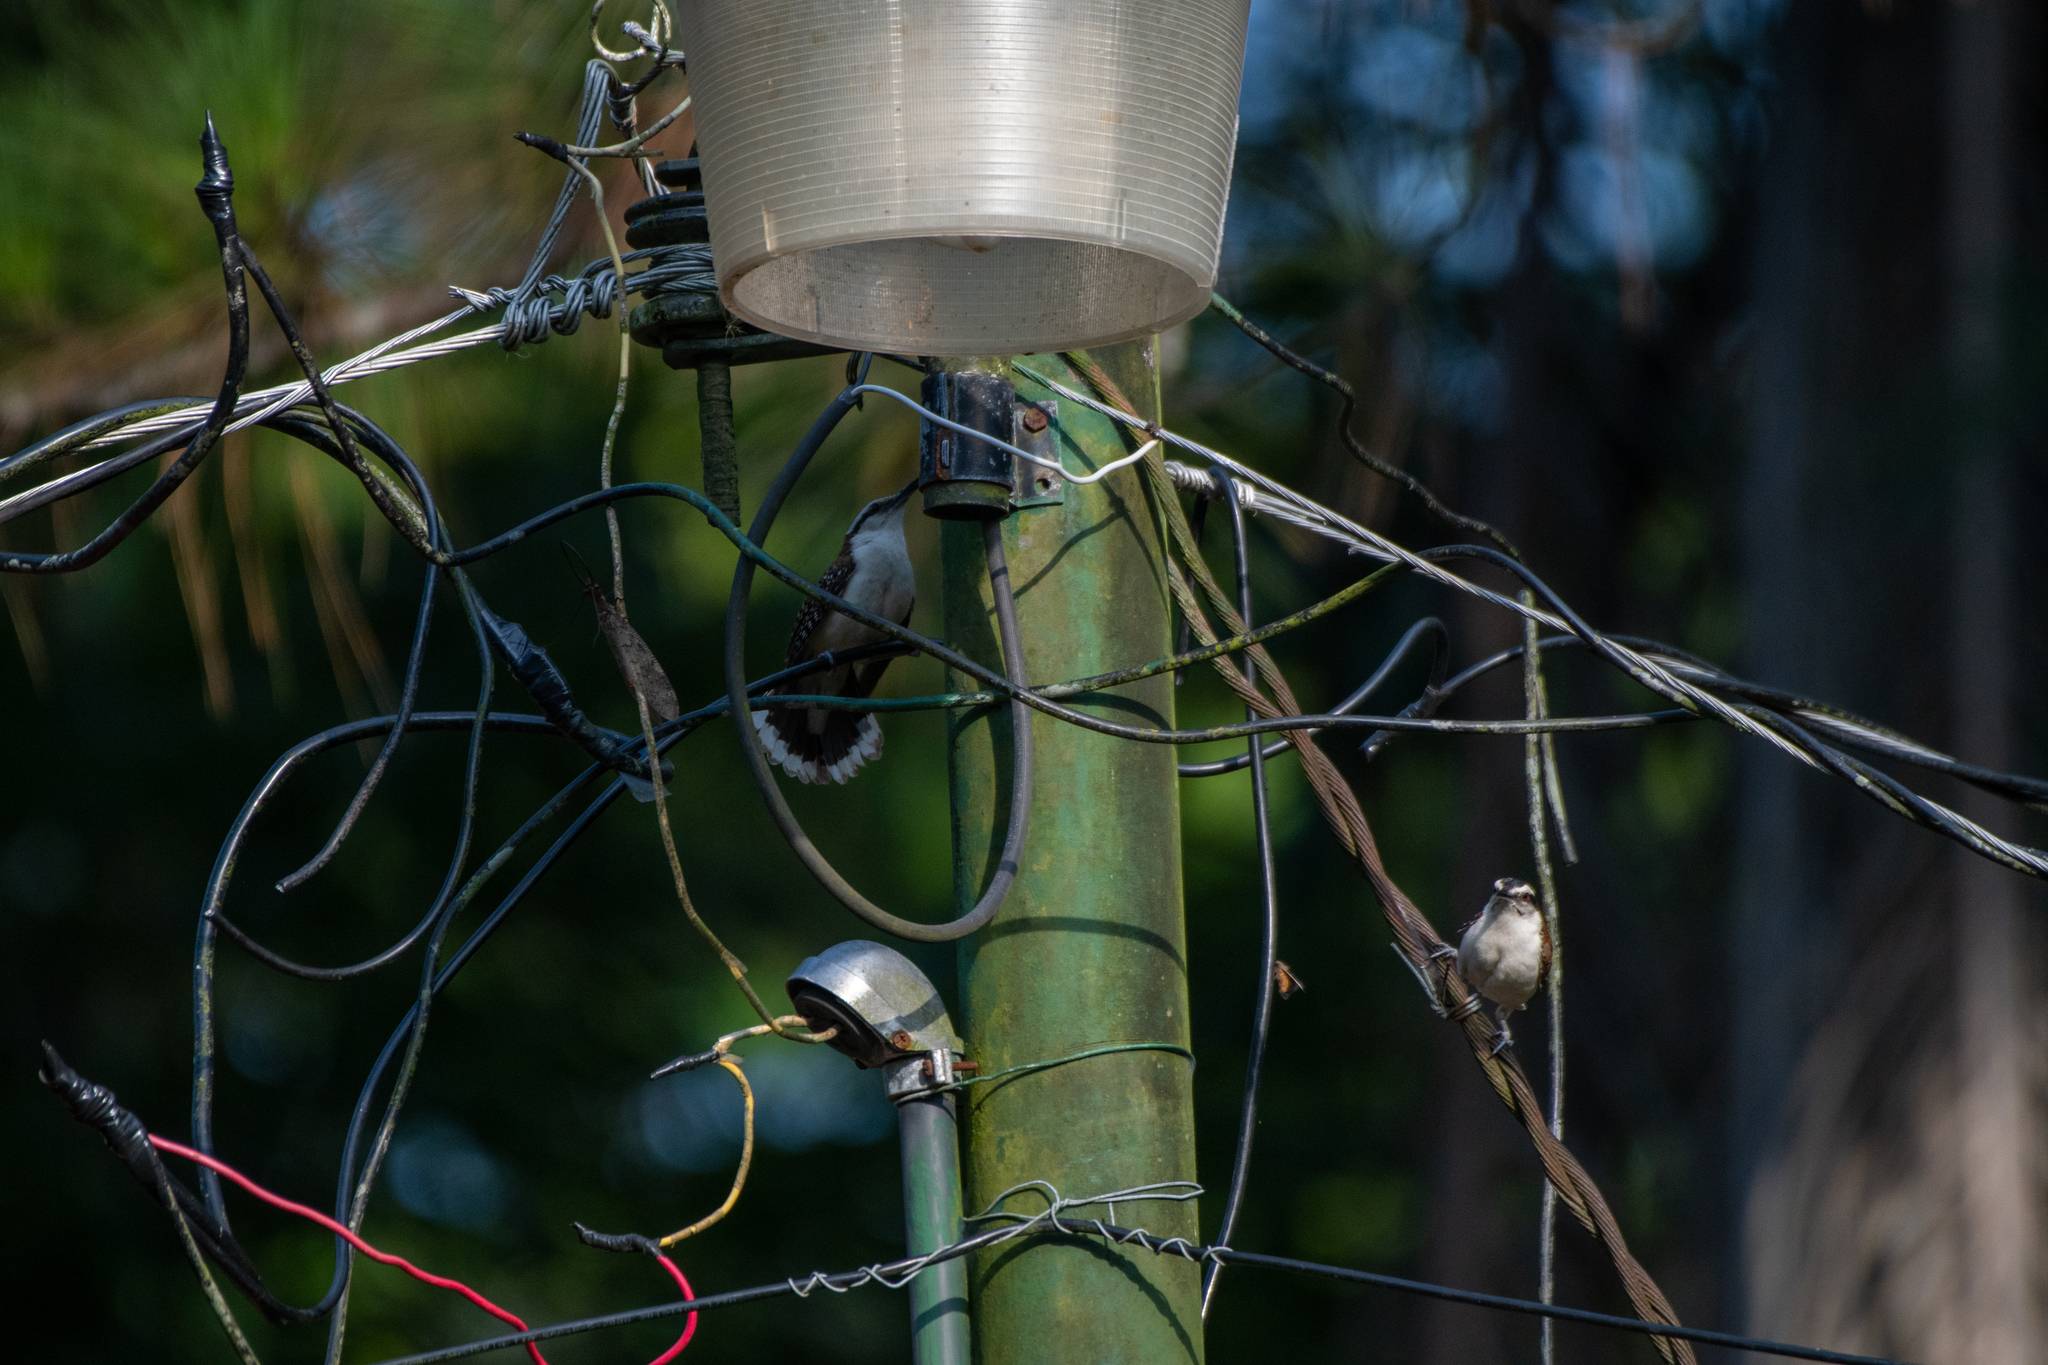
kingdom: Animalia
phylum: Chordata
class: Aves
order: Passeriformes
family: Troglodytidae
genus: Campylorhynchus
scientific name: Campylorhynchus rufinucha
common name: Rufous-naped wren
